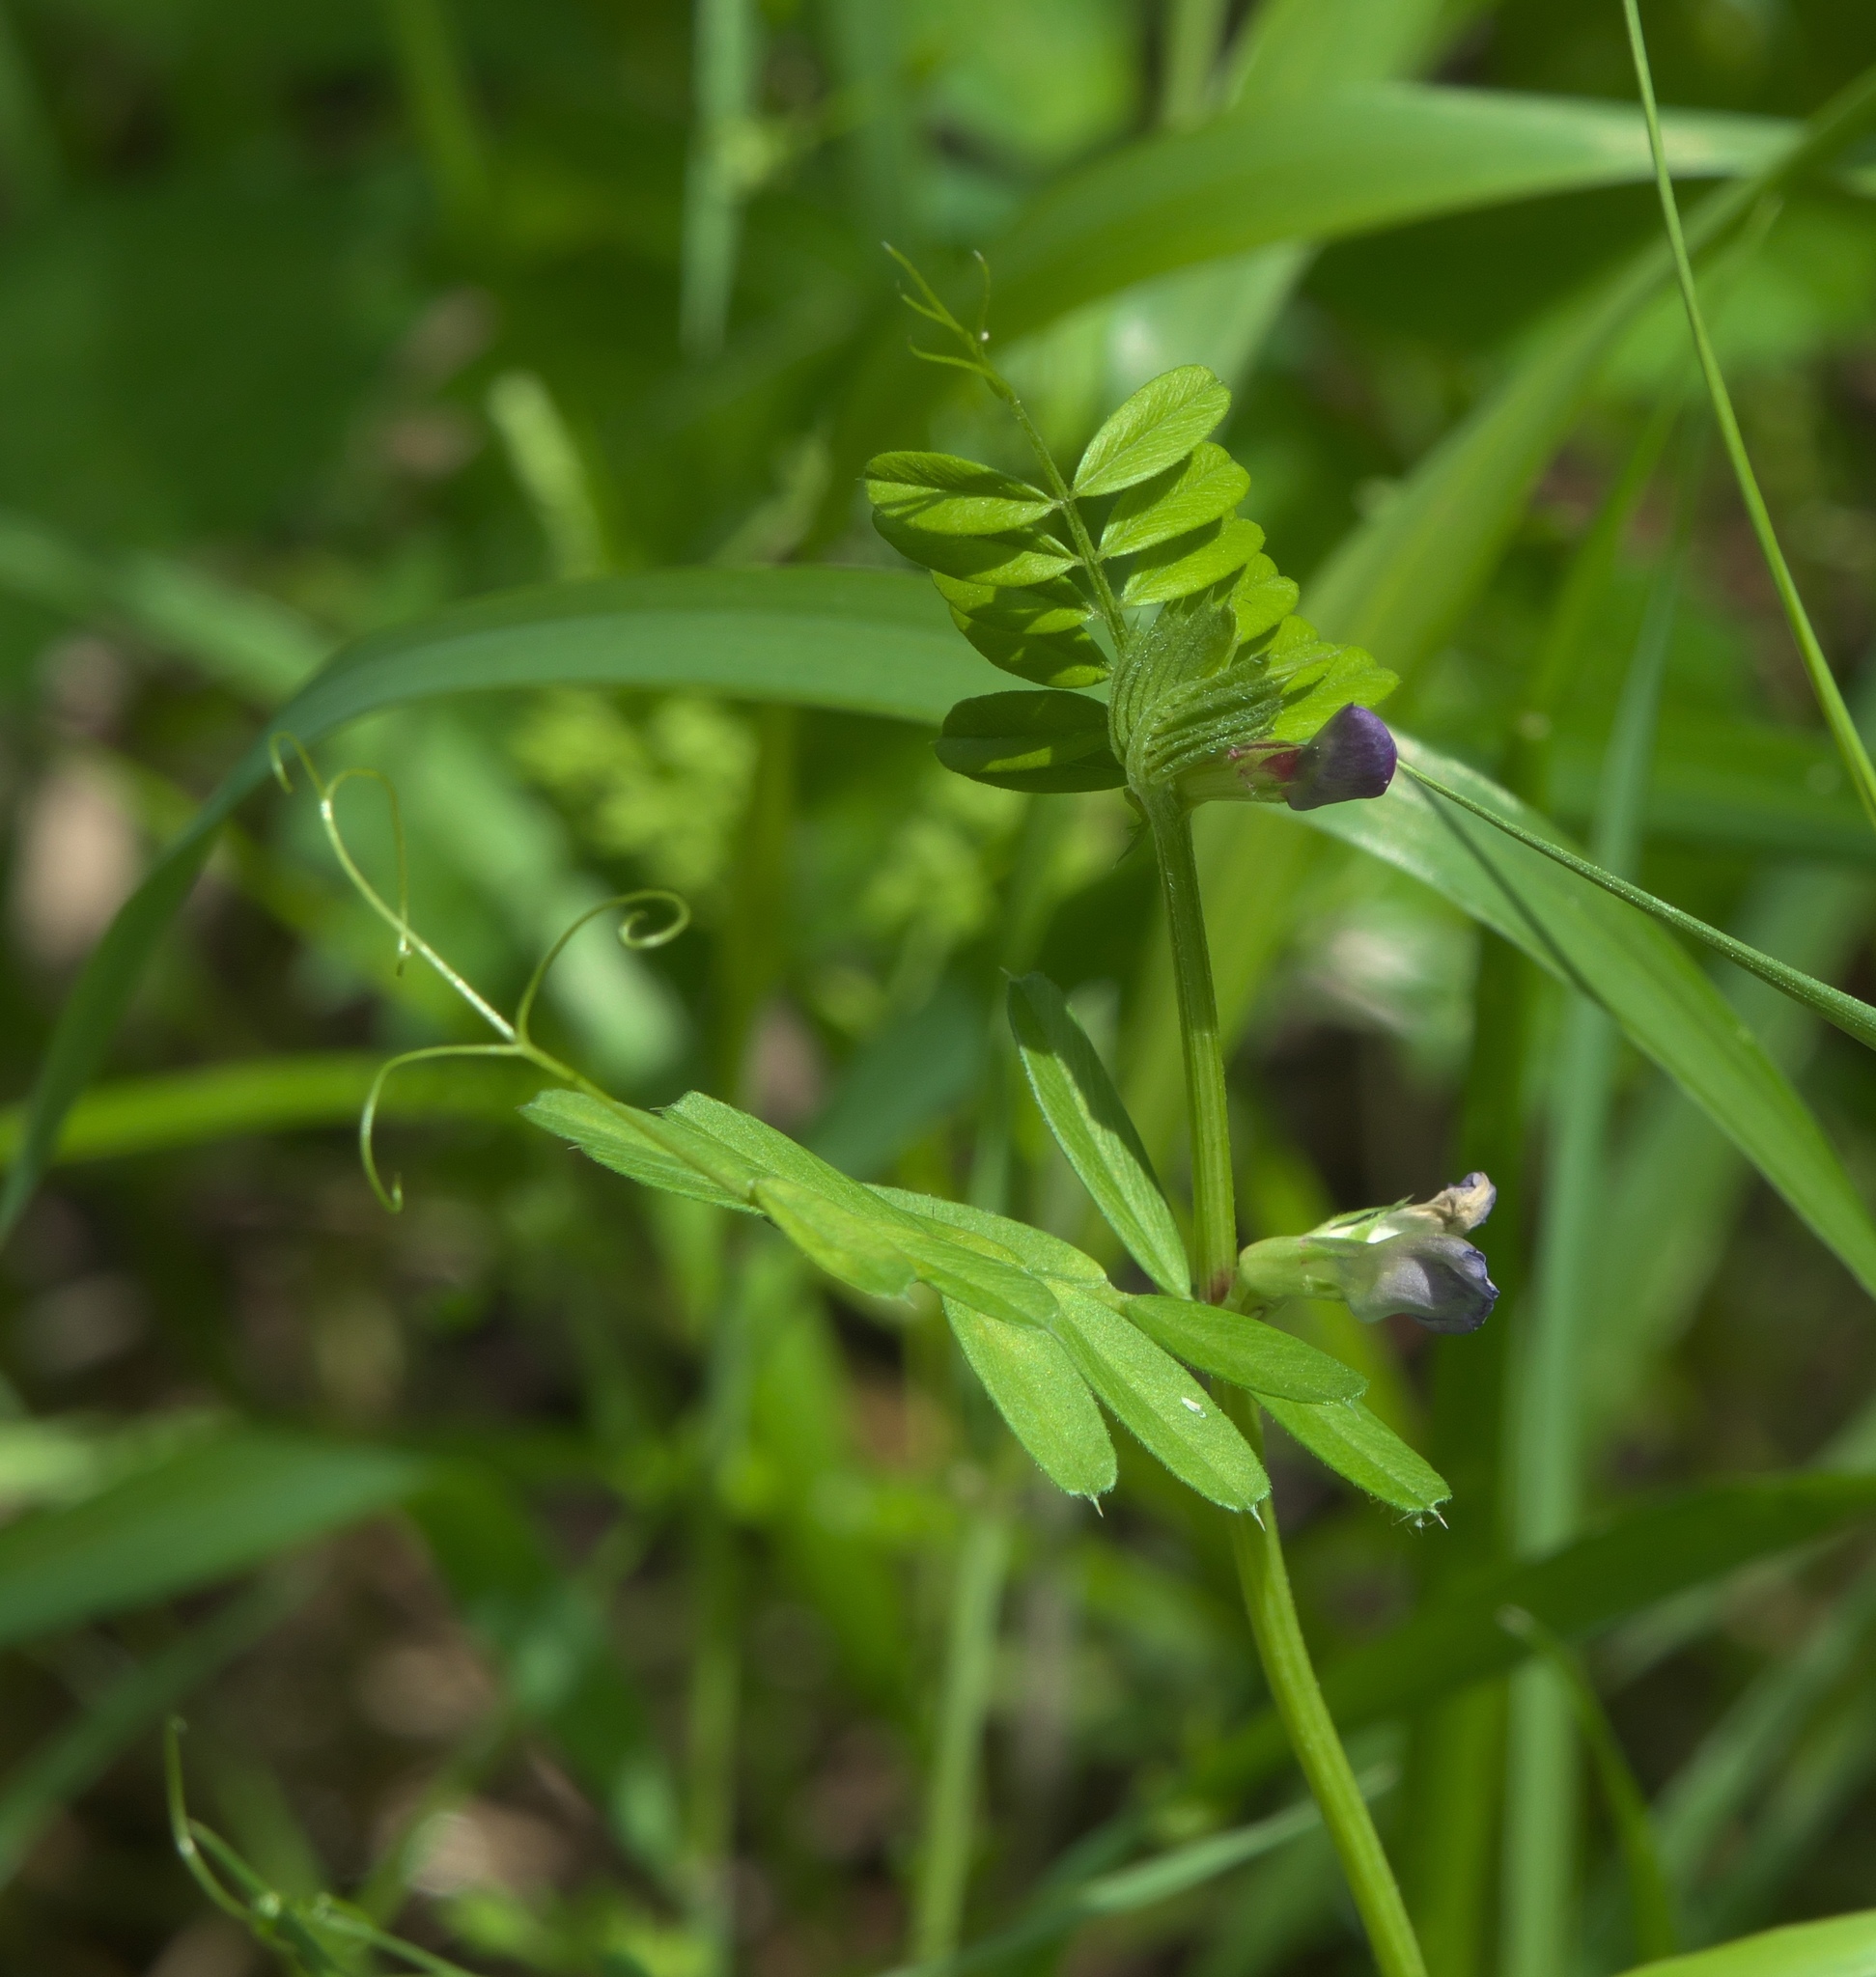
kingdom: Plantae
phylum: Tracheophyta
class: Magnoliopsida
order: Fabales
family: Fabaceae
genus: Vicia
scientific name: Vicia sativa
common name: Garden vetch
